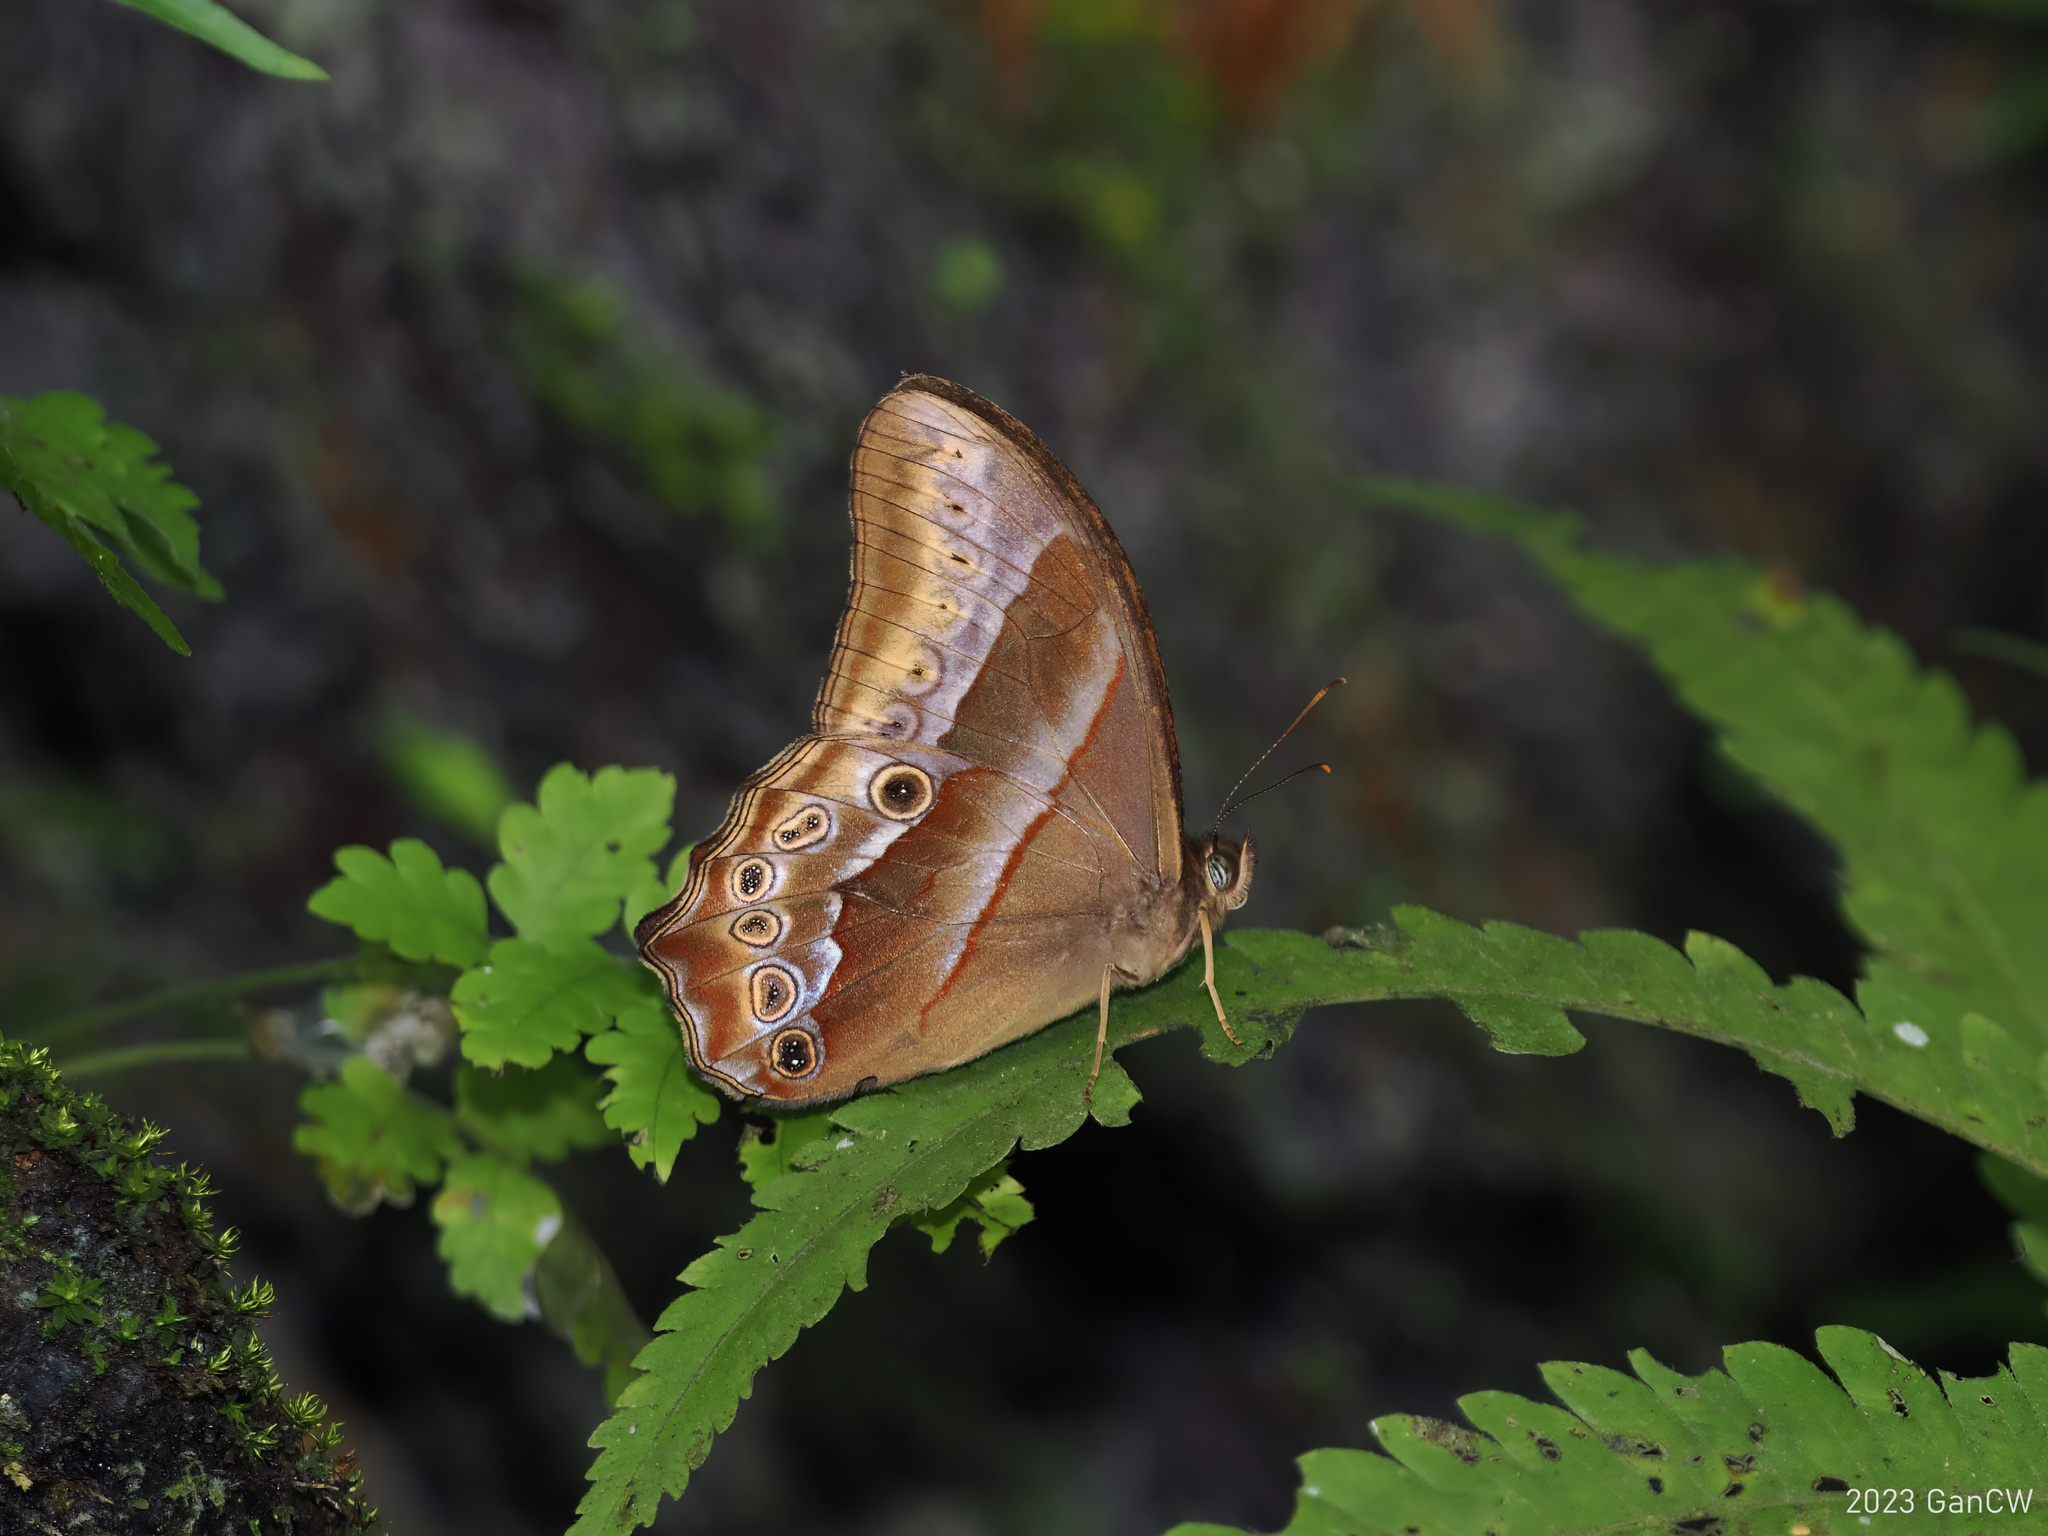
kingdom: Animalia
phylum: Arthropoda
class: Insecta
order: Lepidoptera
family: Nymphalidae
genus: Lethe
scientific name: Lethe mekara
